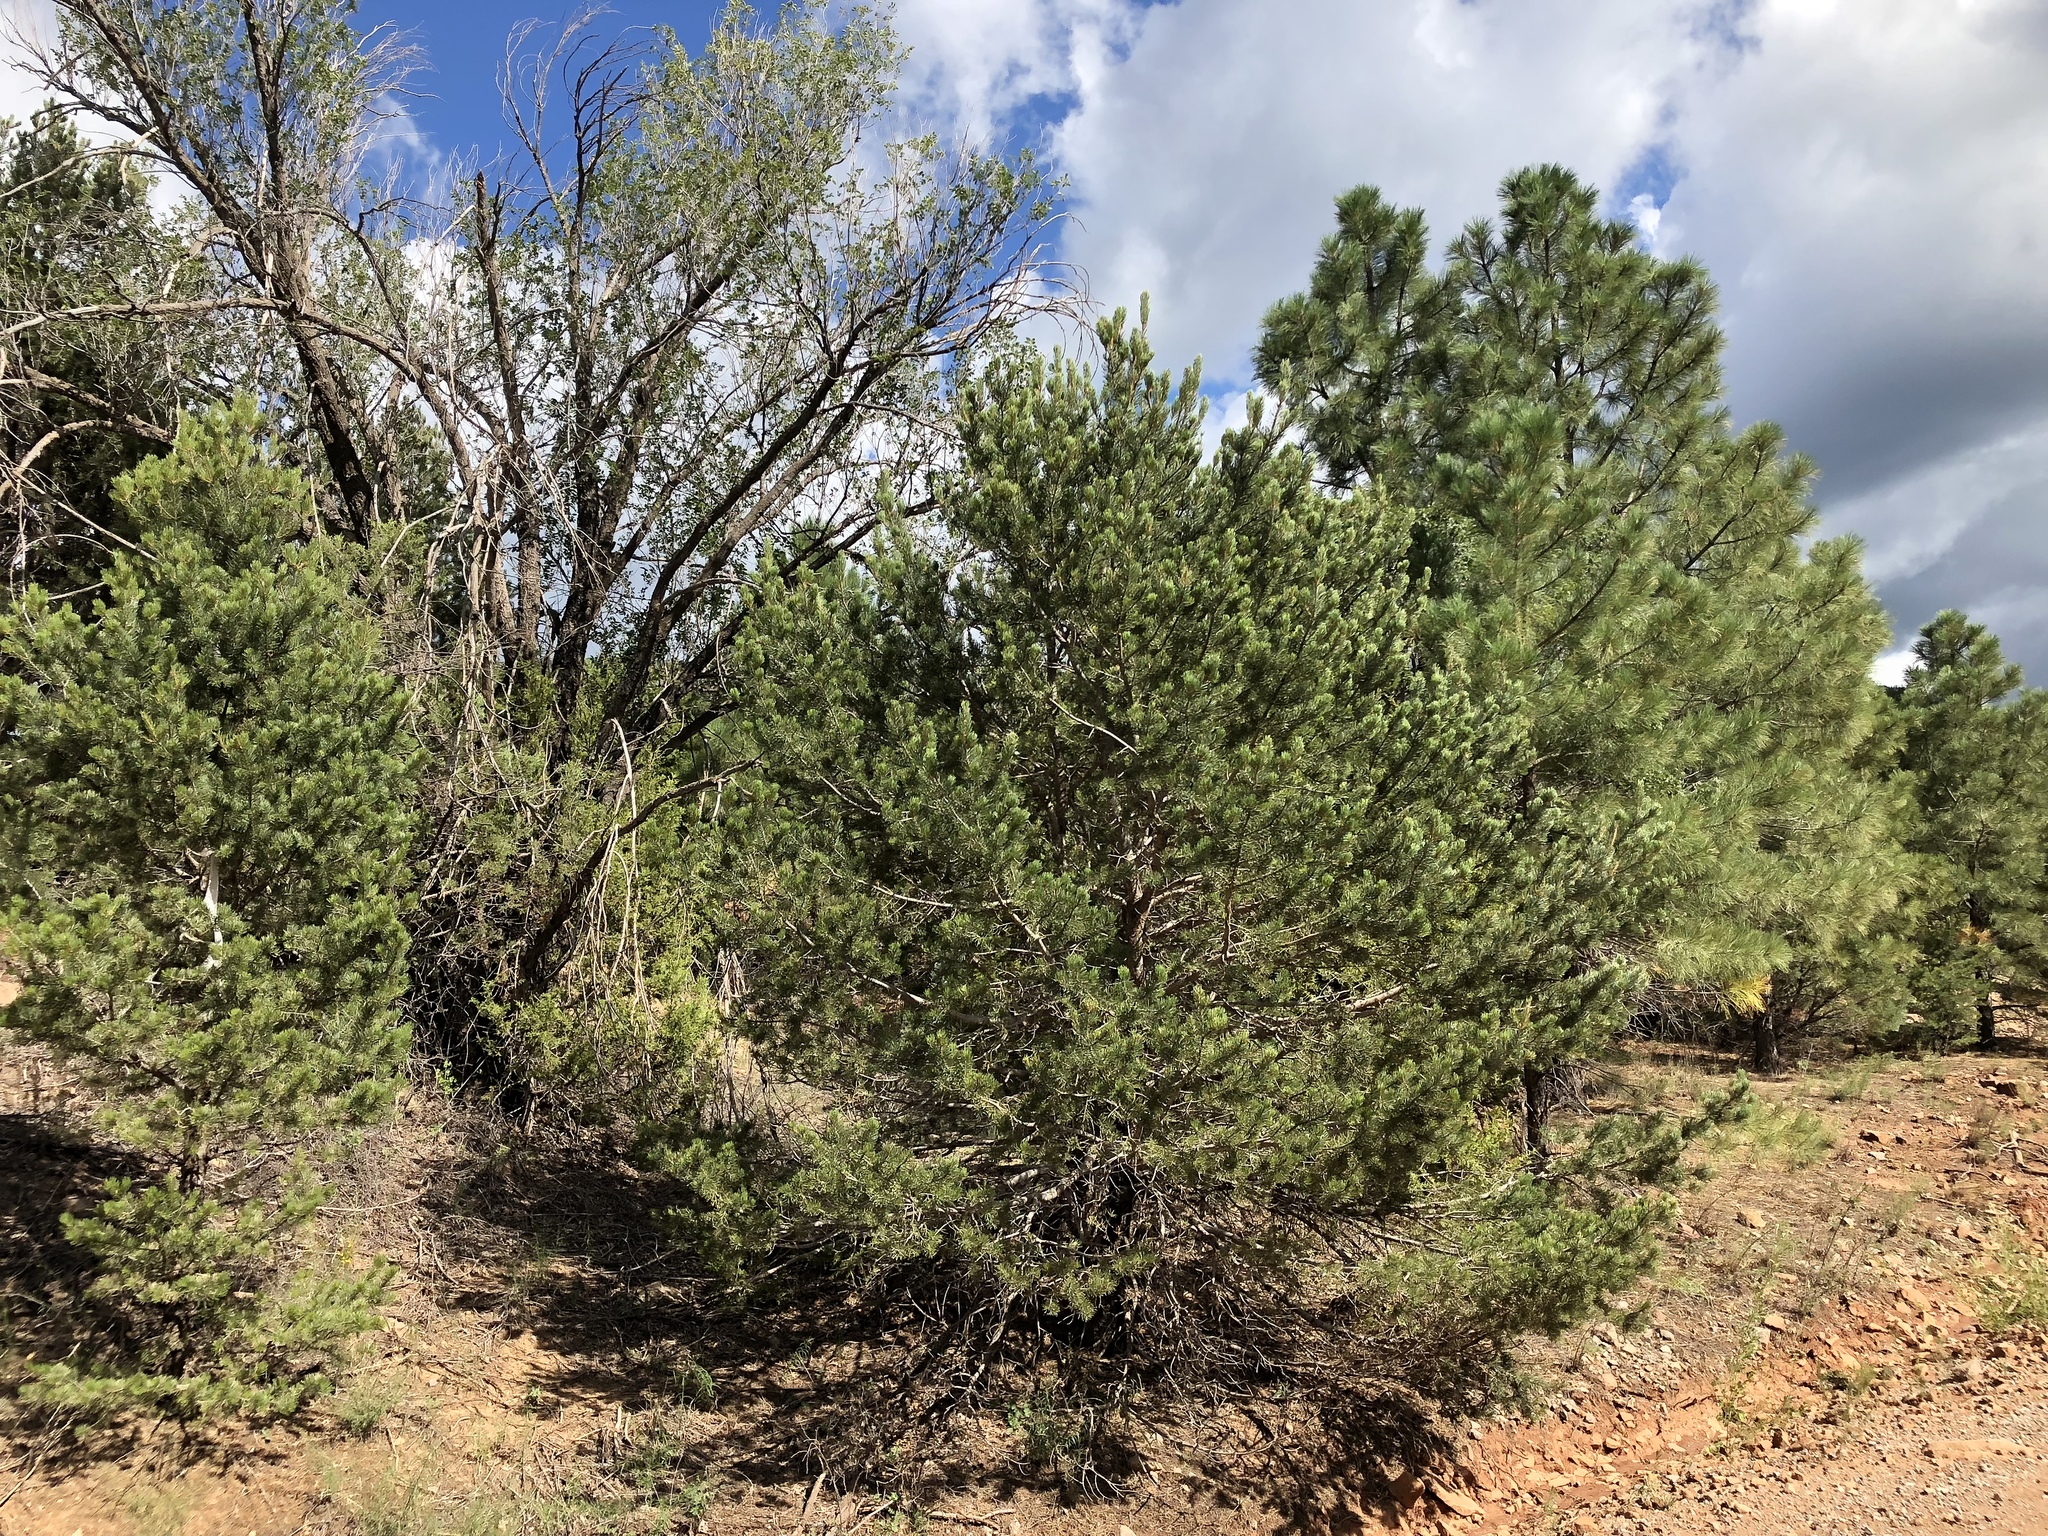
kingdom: Plantae
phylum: Tracheophyta
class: Pinopsida
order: Pinales
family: Pinaceae
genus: Pinus
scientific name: Pinus edulis
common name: Colorado pinyon
